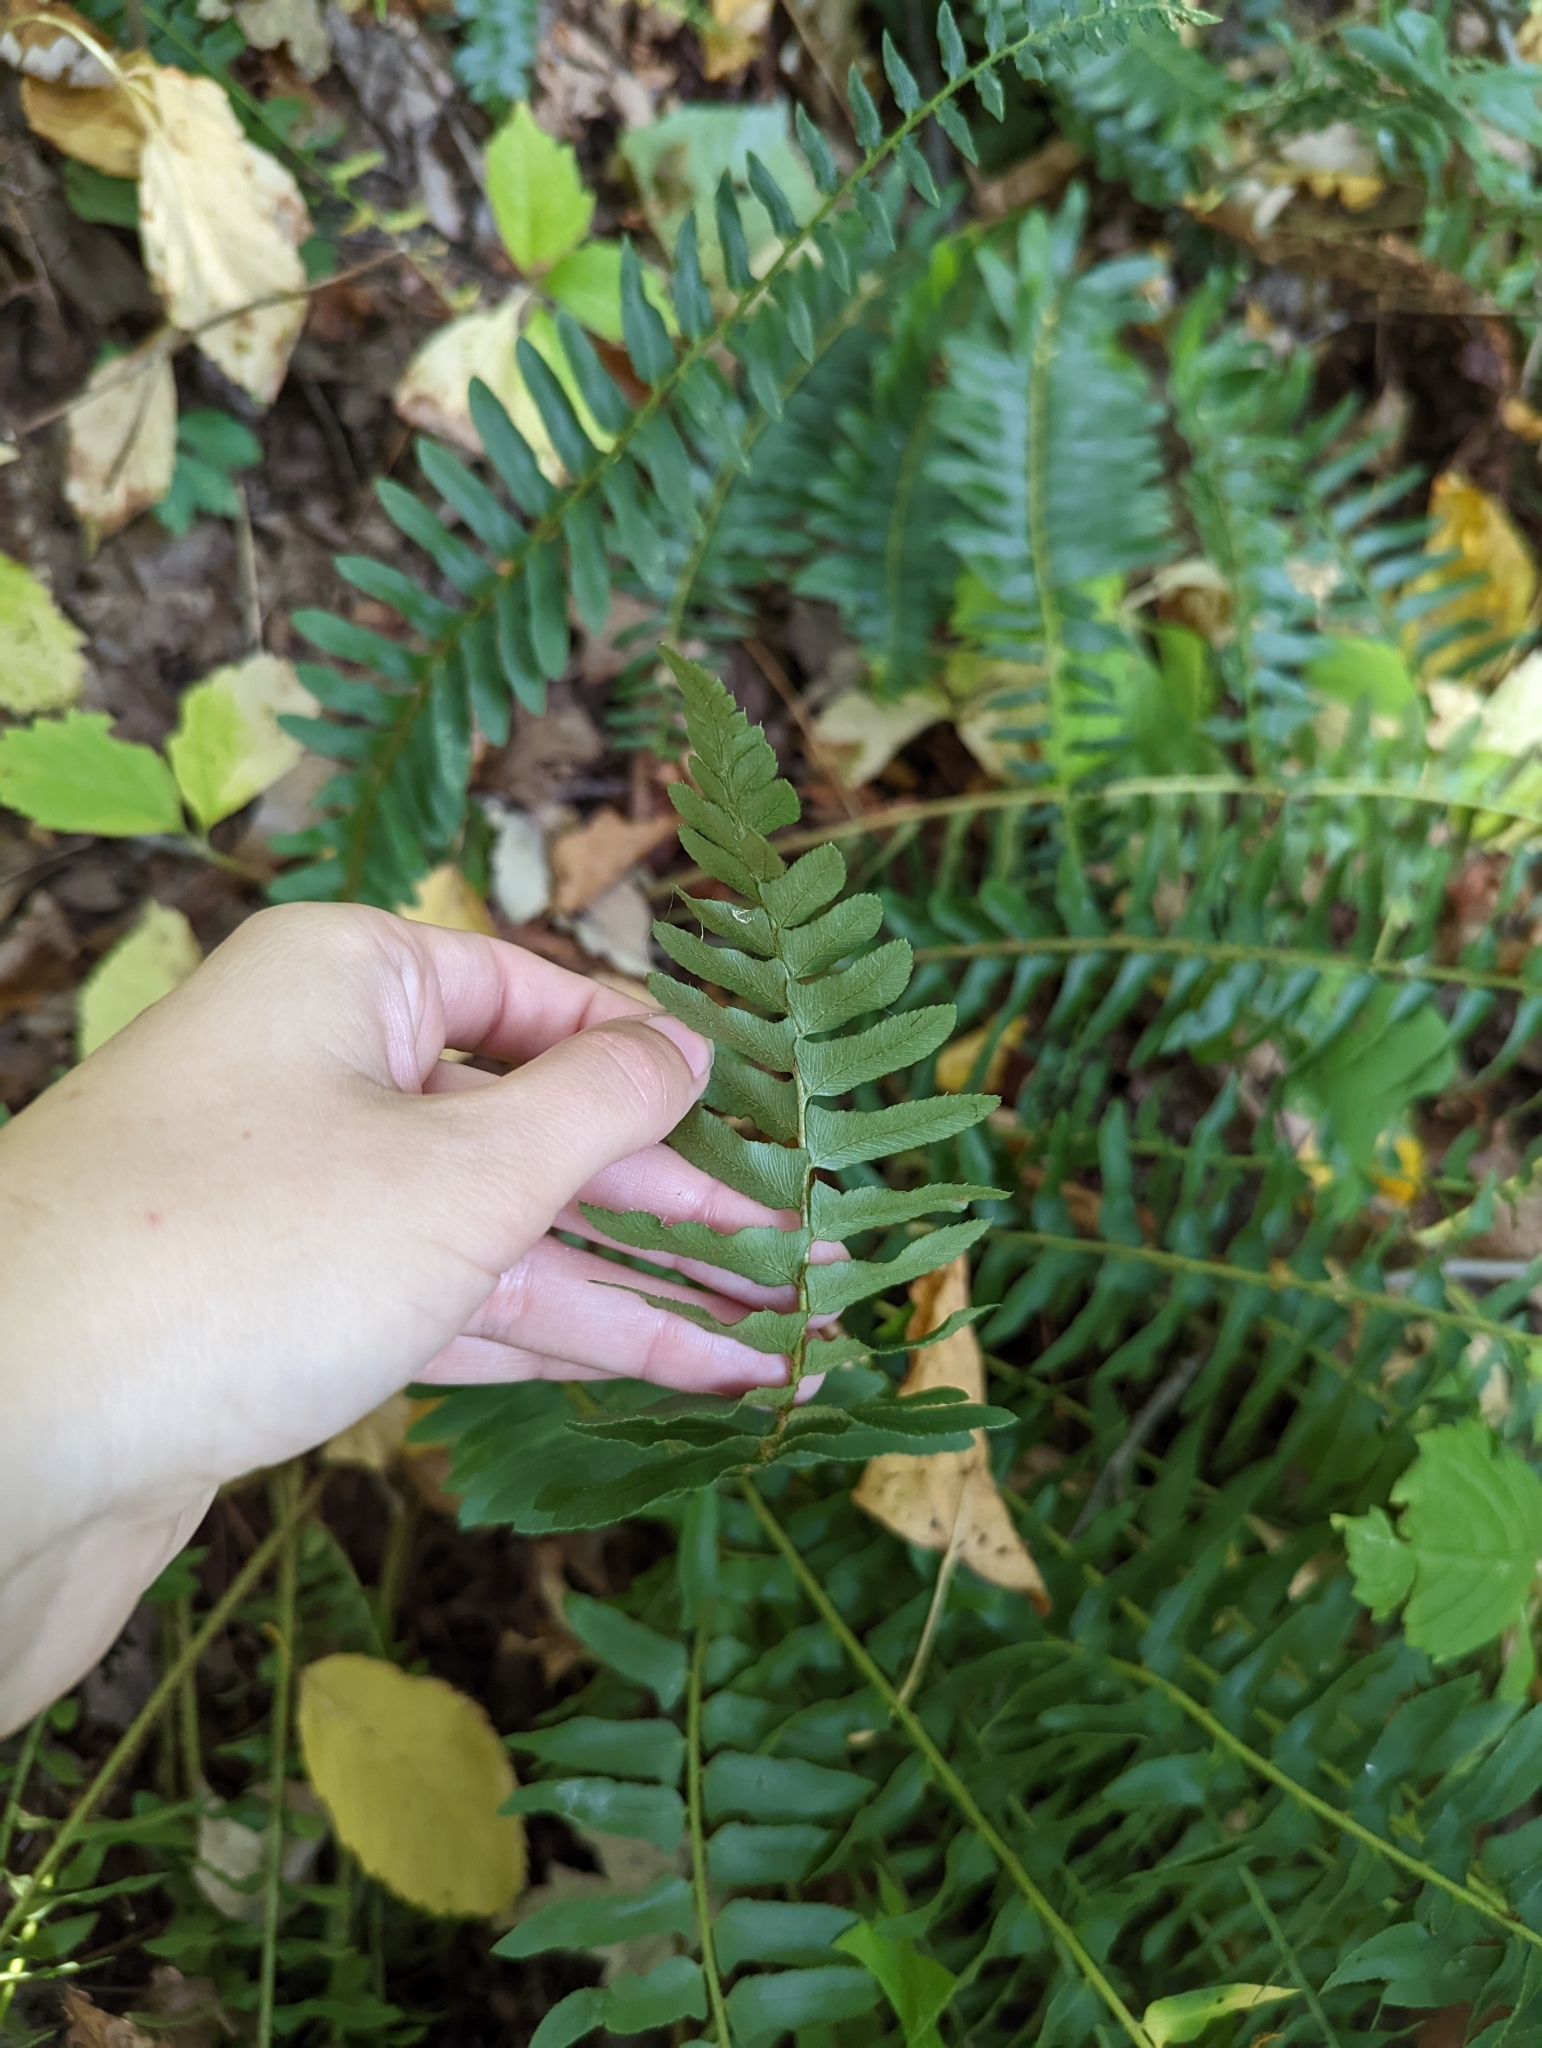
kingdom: Plantae
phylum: Tracheophyta
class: Polypodiopsida
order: Polypodiales
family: Dryopteridaceae
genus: Polystichum
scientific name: Polystichum acrostichoides
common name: Christmas fern
